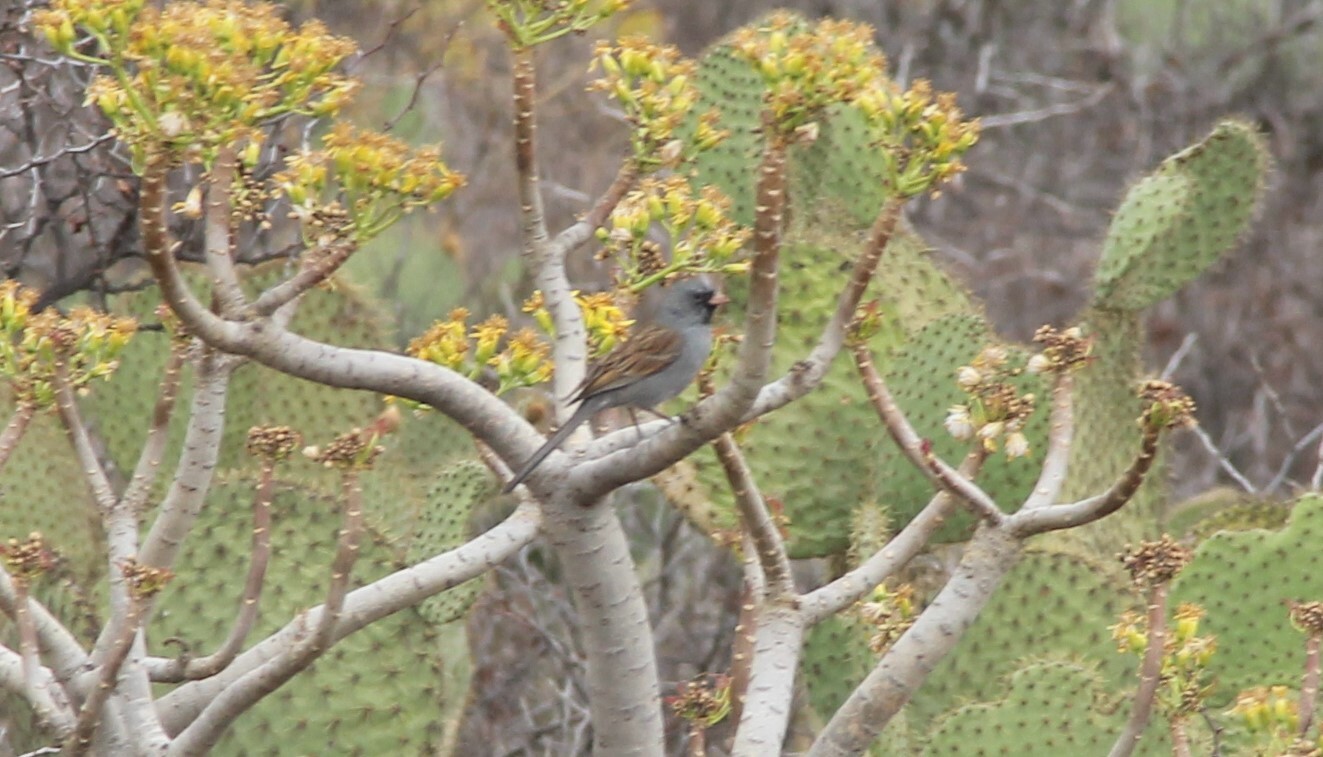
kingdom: Animalia
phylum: Chordata
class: Aves
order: Passeriformes
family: Passerellidae
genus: Spizella
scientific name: Spizella atrogularis
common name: Black-chinned sparrow
